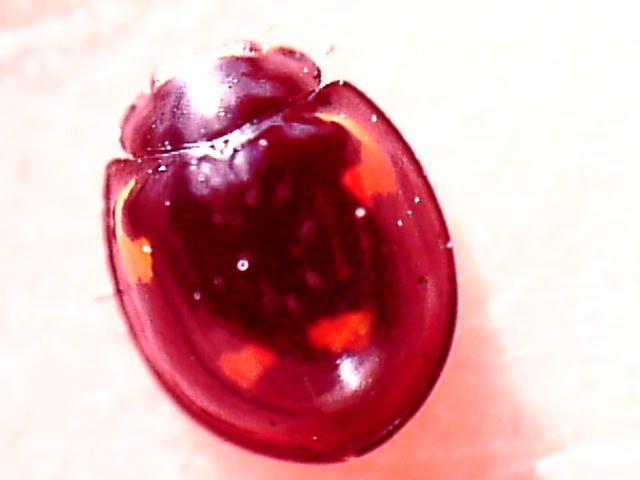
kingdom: Animalia
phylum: Arthropoda
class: Insecta
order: Coleoptera
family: Coccinellidae
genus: Brumus
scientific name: Brumus quadripustulatus
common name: Ladybird beetle
